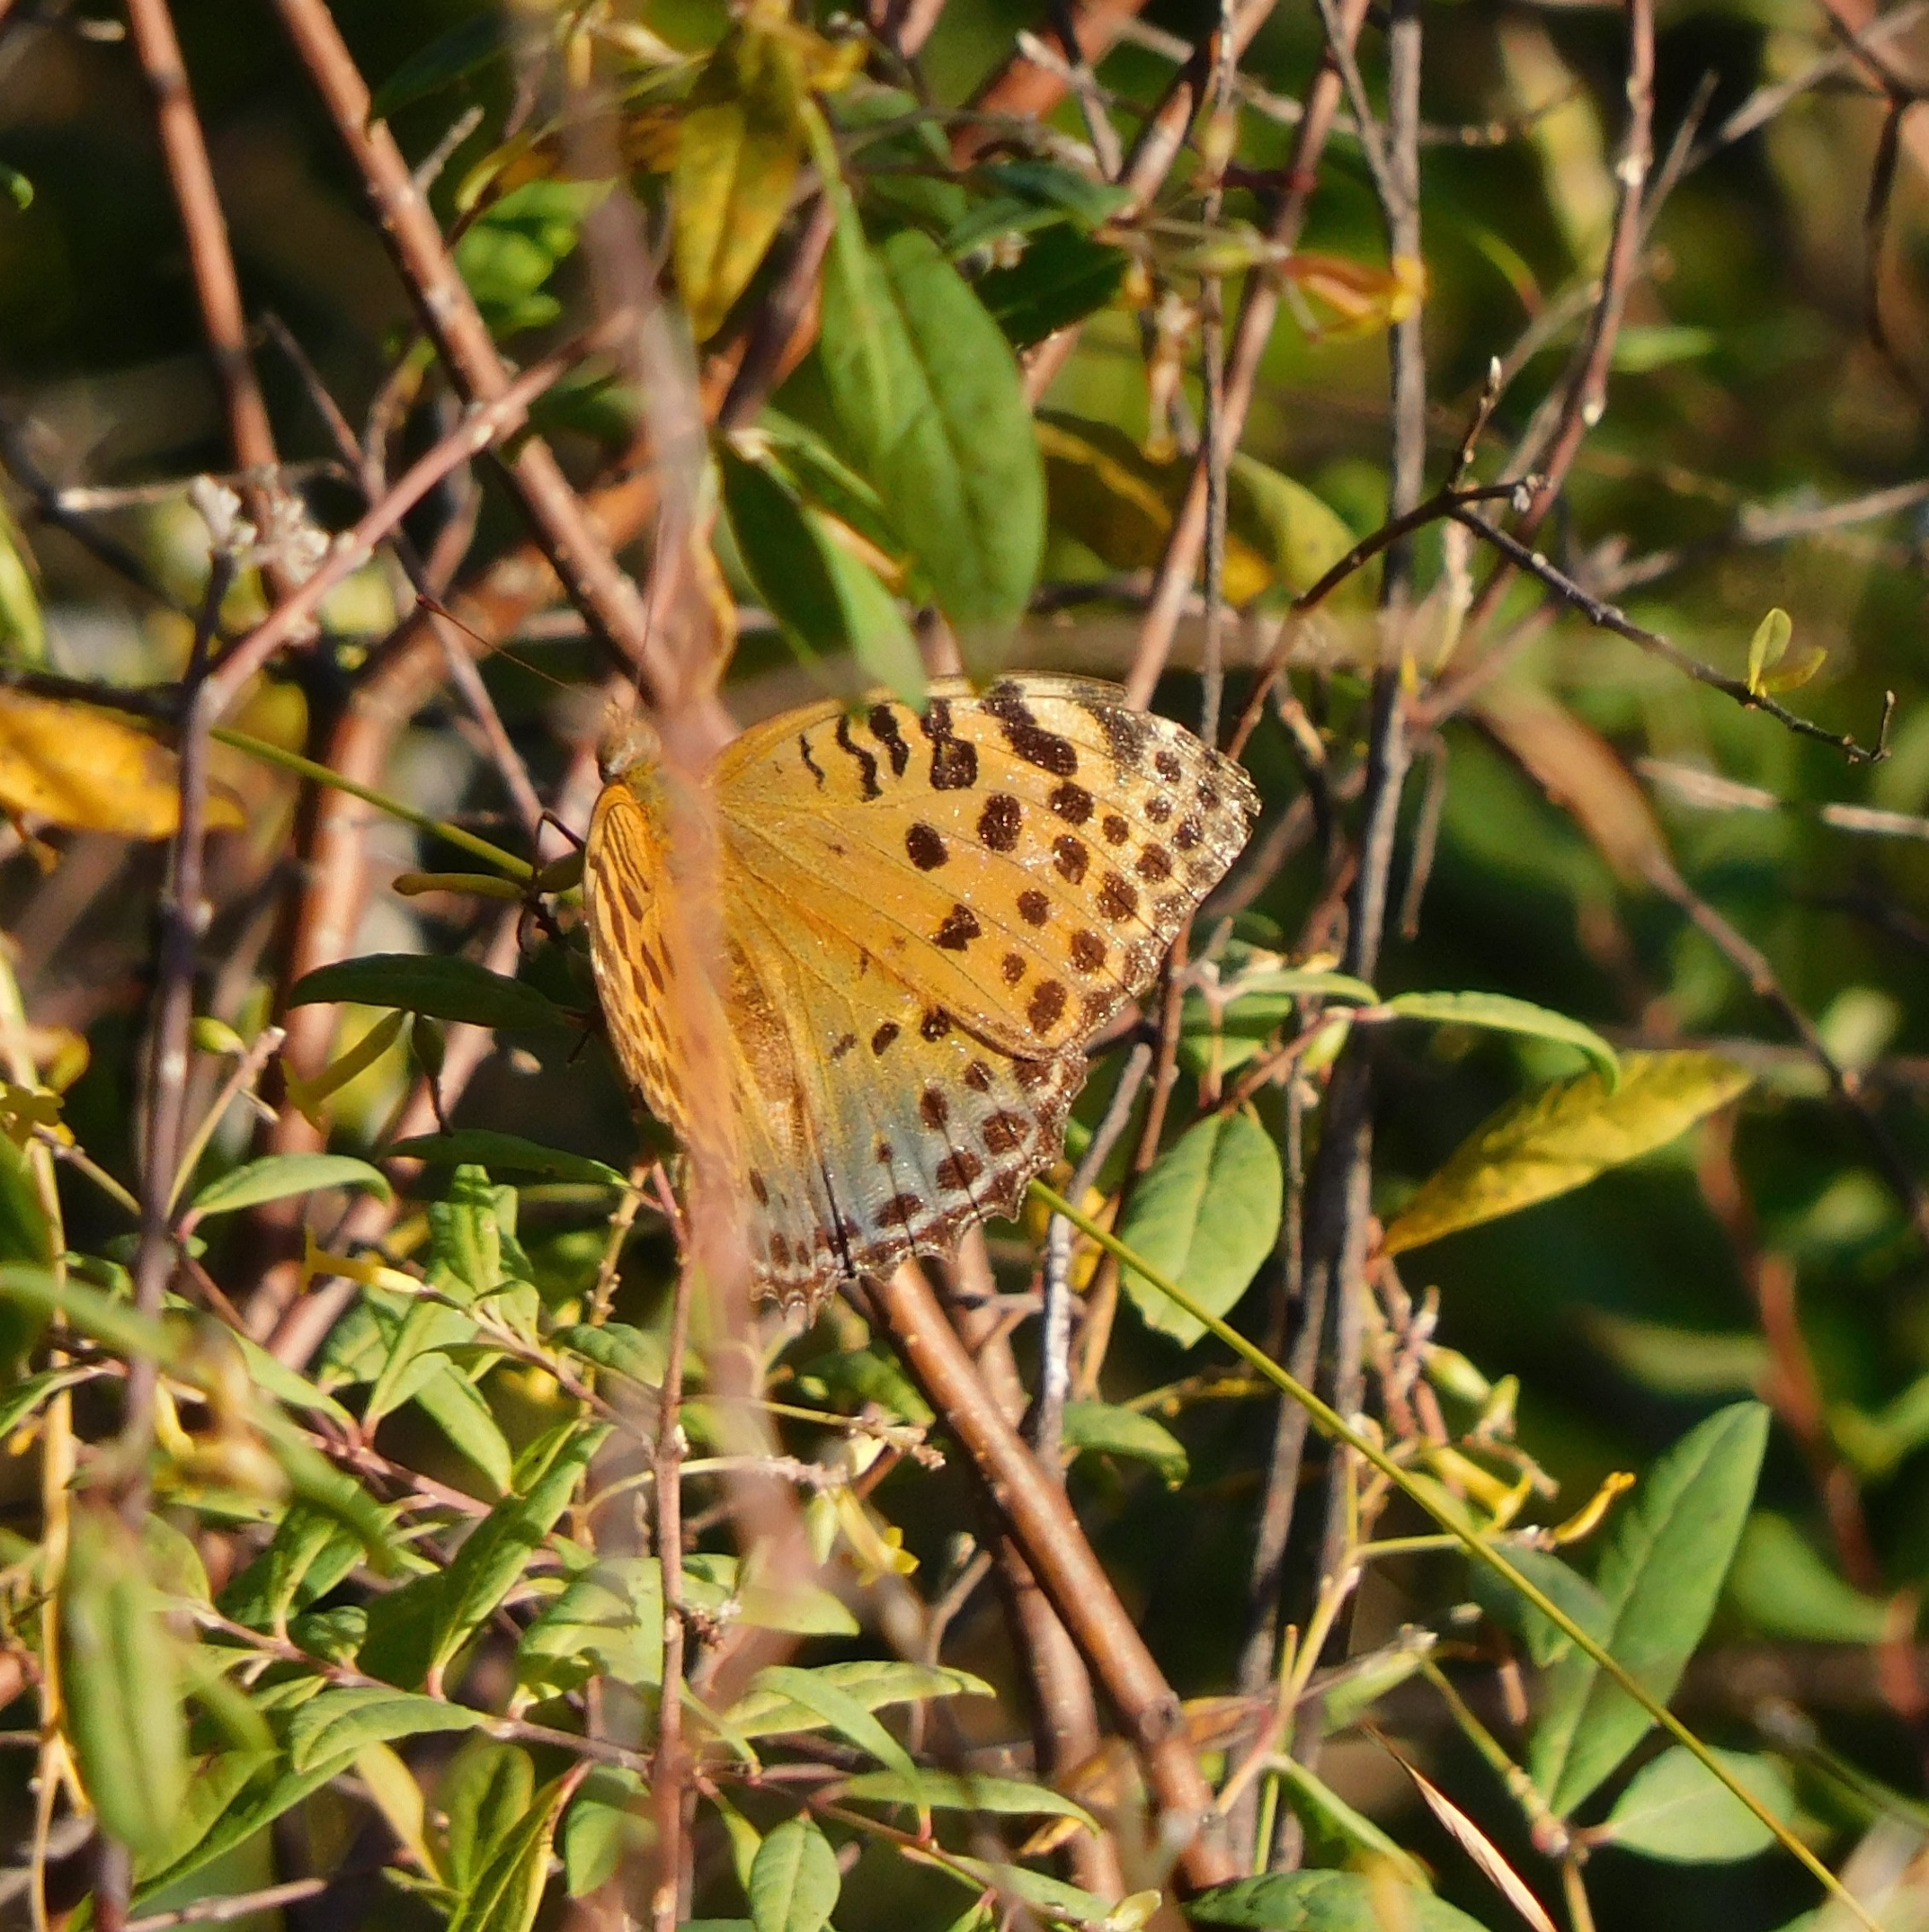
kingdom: Animalia
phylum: Arthropoda
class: Insecta
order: Lepidoptera
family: Nymphalidae
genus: Childrena
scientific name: Childrena childreni
